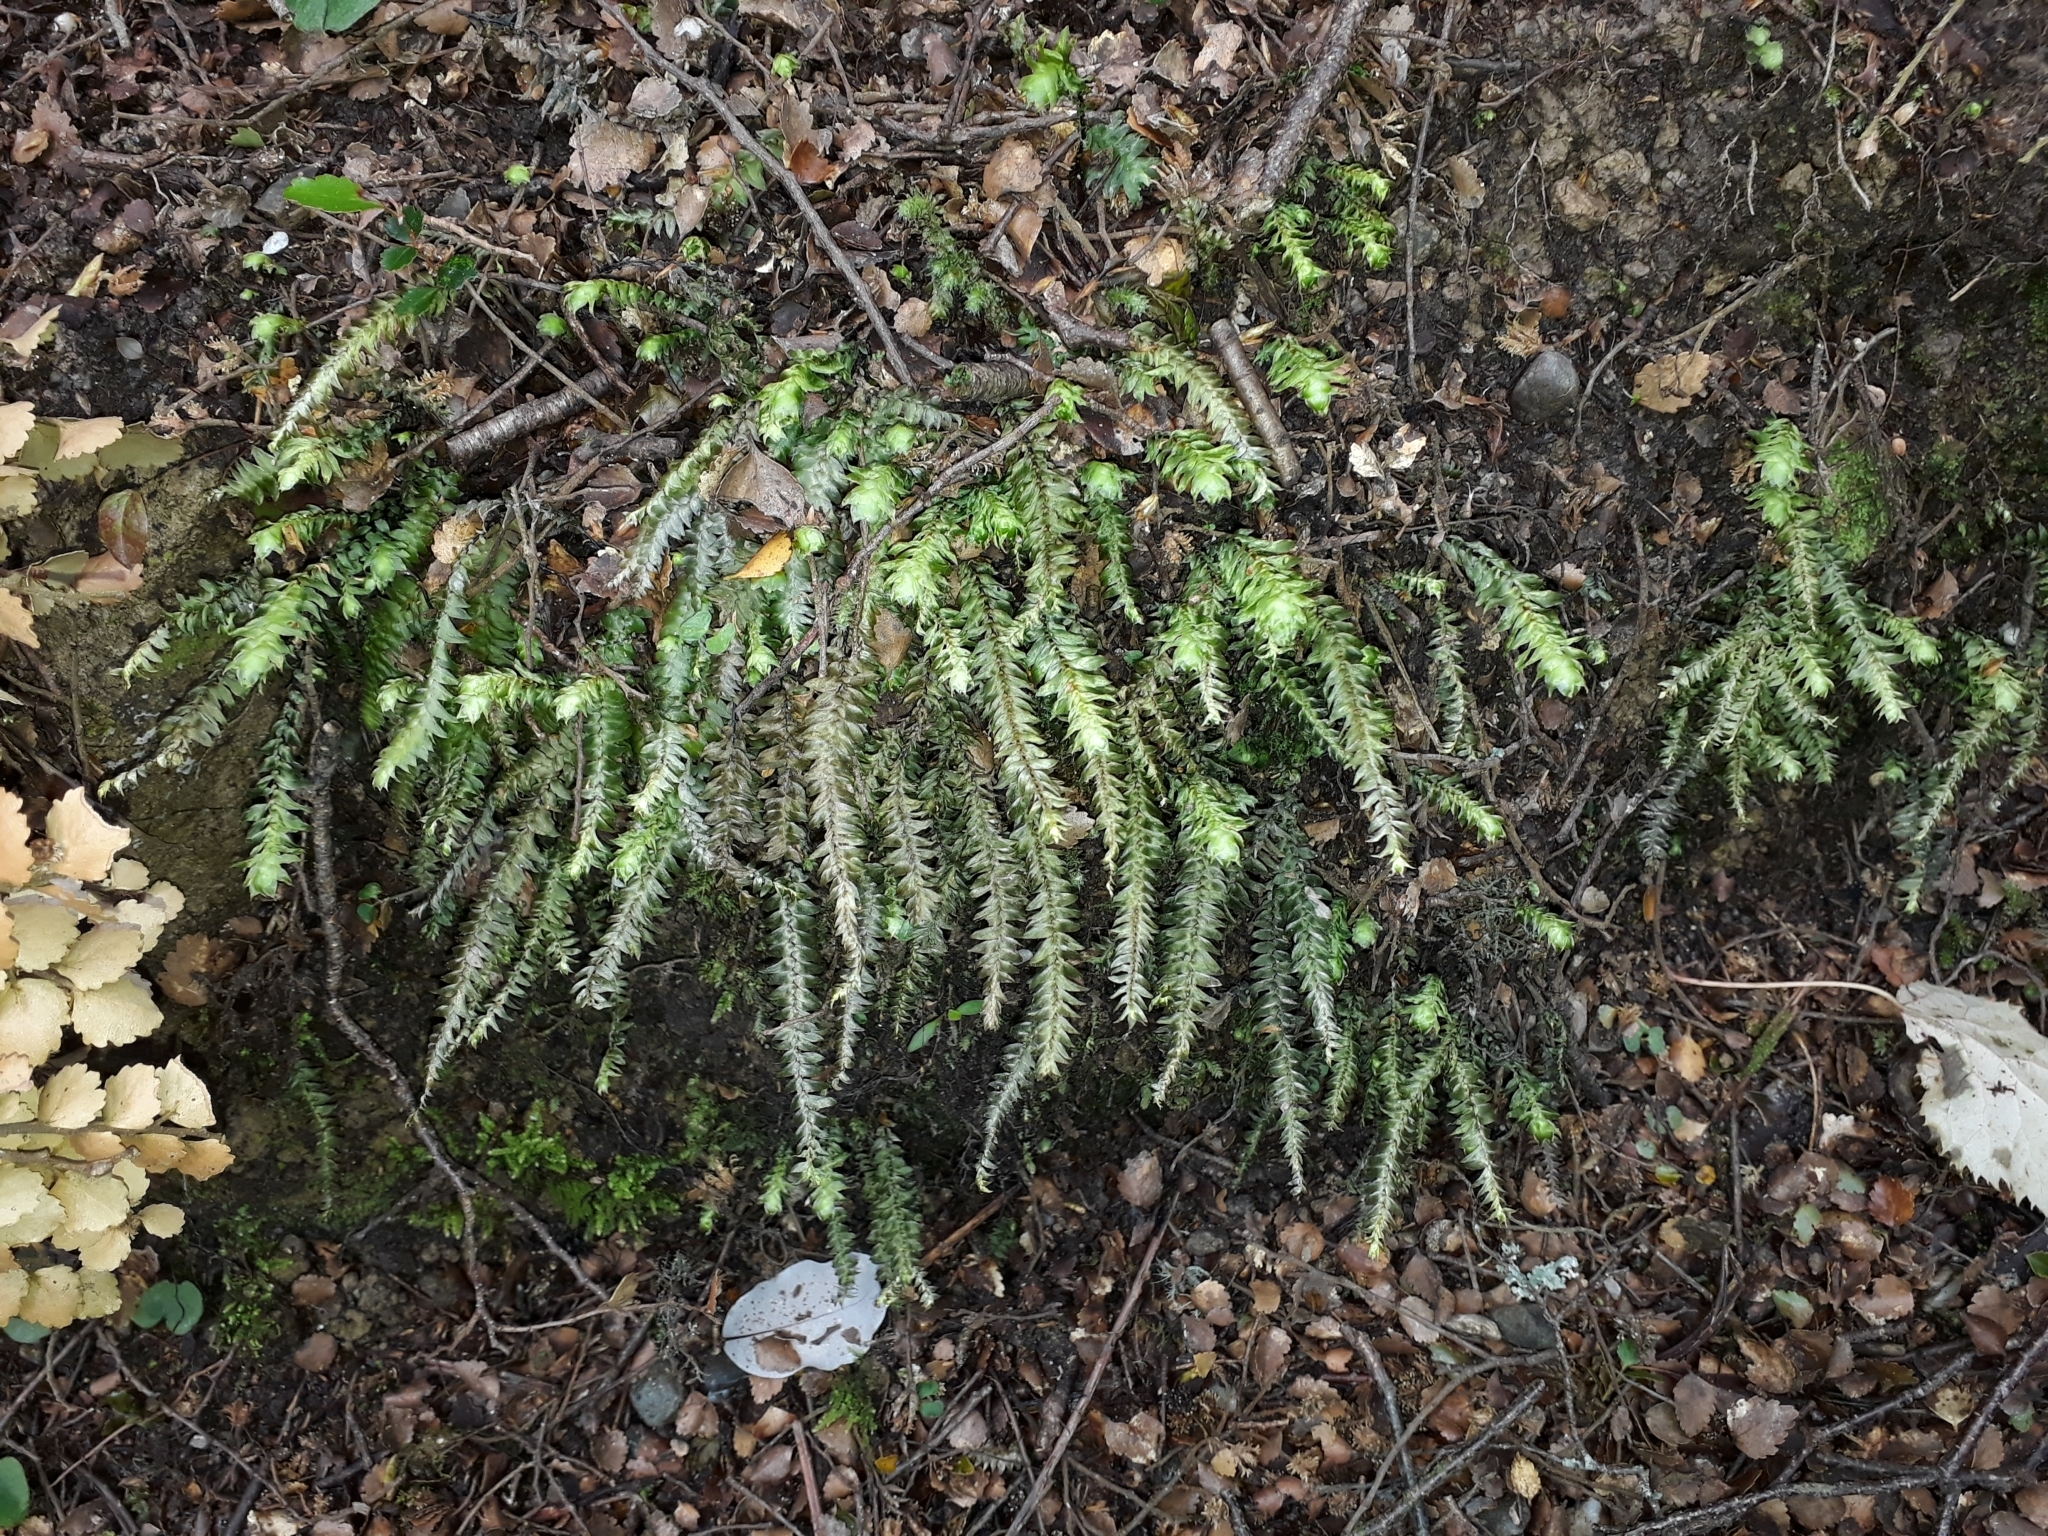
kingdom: Plantae
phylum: Bryophyta
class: Bryopsida
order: Hypopterygiales
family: Hypopterygiaceae
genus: Cyathophorum
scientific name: Cyathophorum bulbosum
